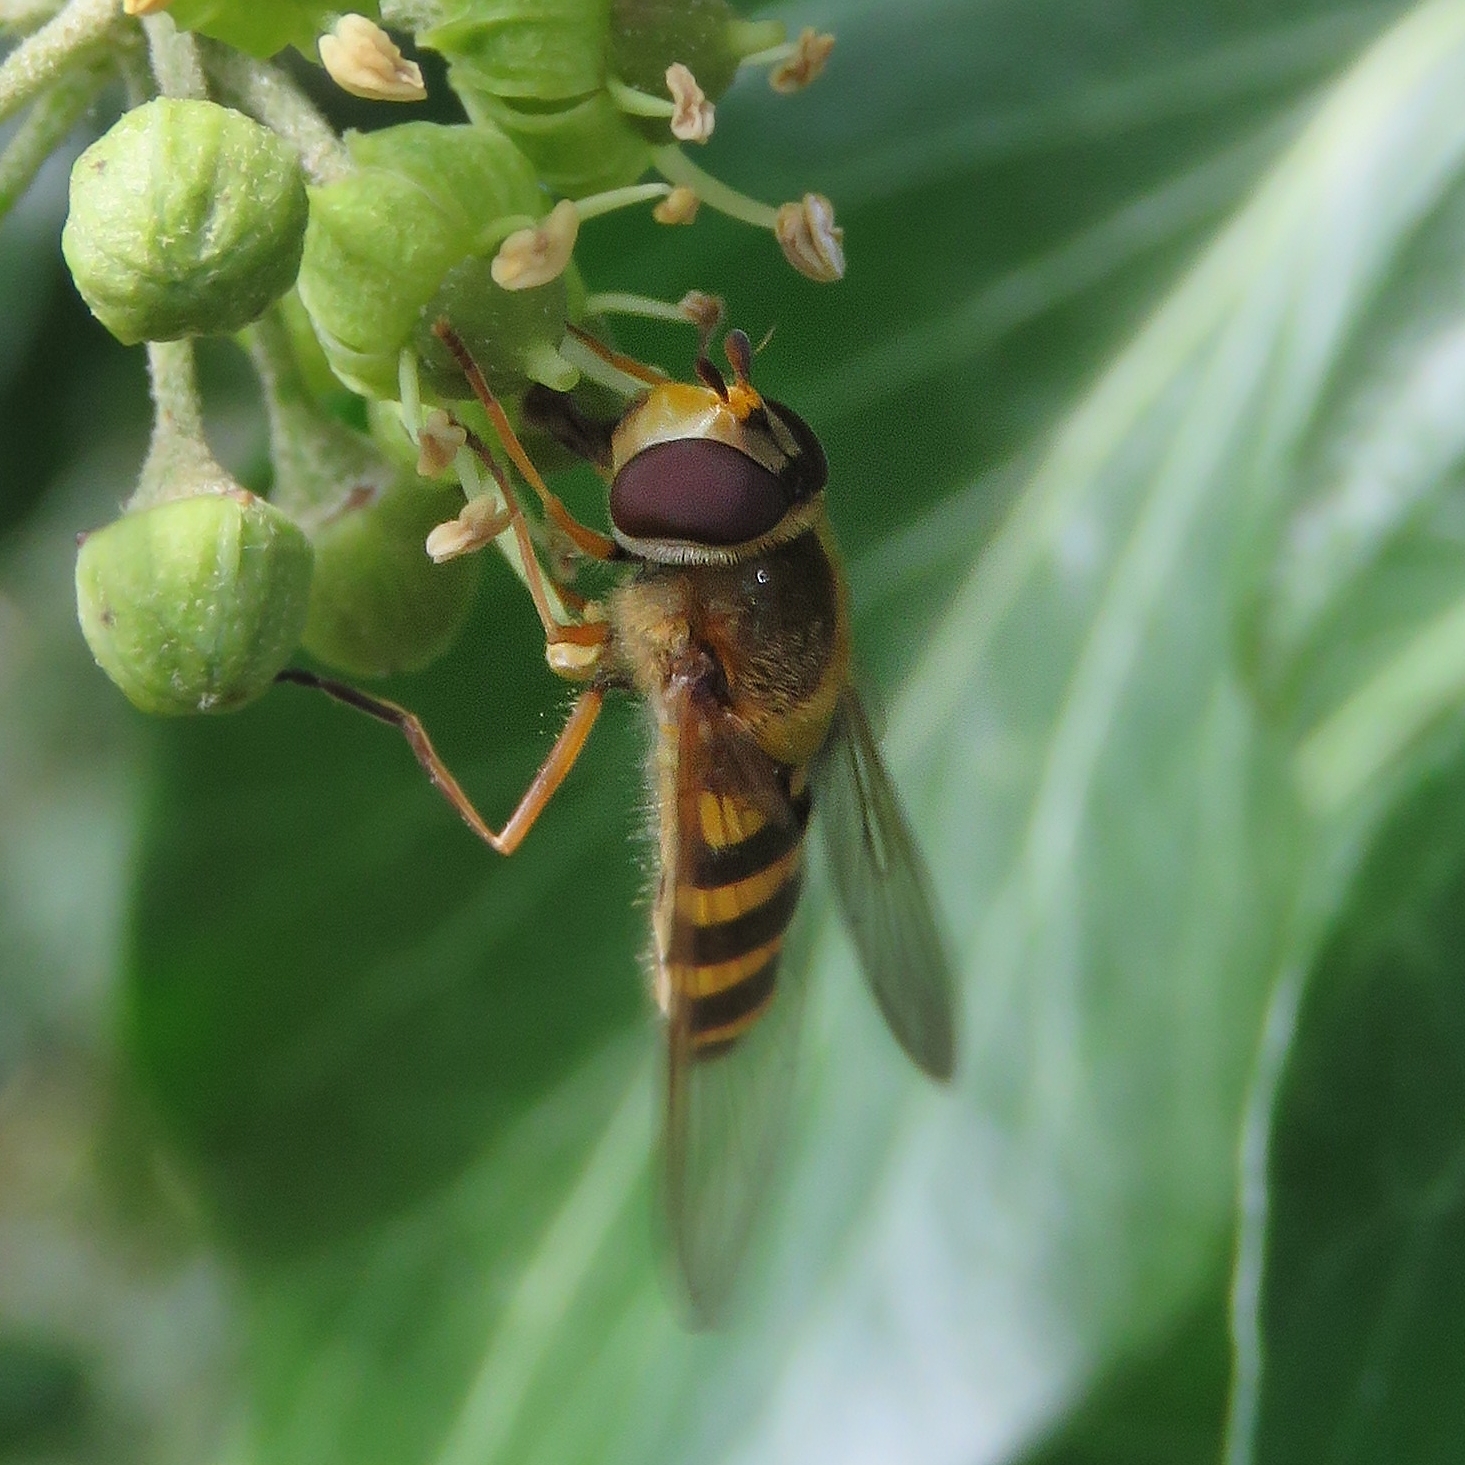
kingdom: Animalia
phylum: Arthropoda
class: Insecta
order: Diptera
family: Syrphidae
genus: Syrphus
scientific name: Syrphus ribesii
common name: Common flower fly
